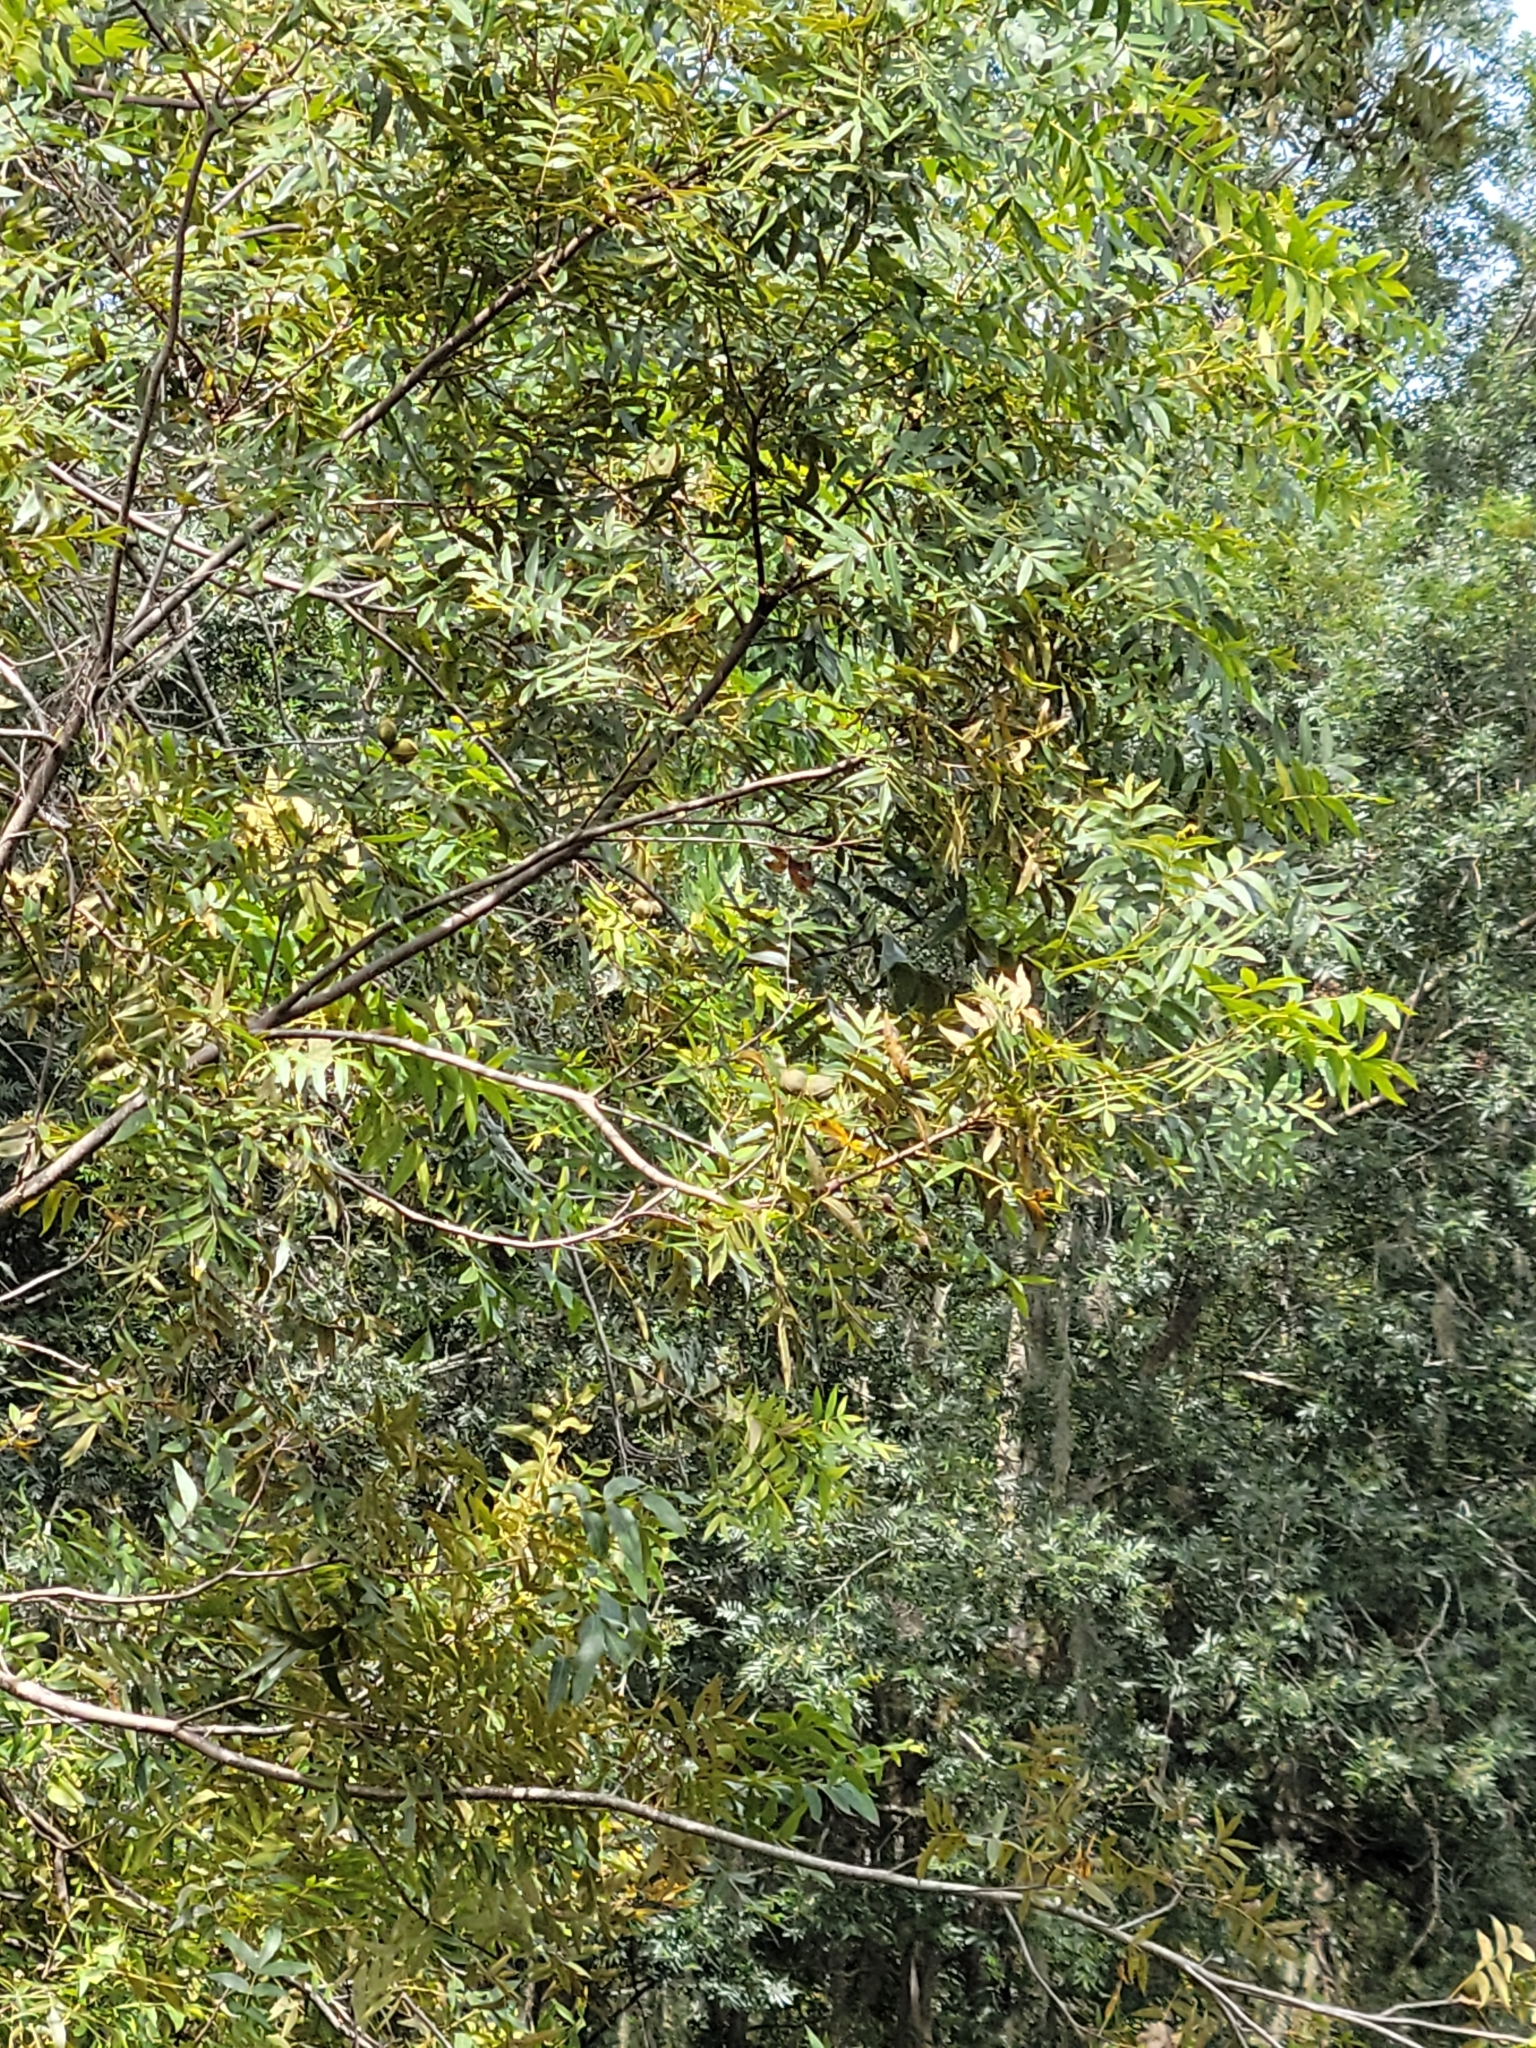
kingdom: Plantae
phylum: Tracheophyta
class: Magnoliopsida
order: Fagales
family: Juglandaceae
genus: Carya
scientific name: Carya aquatica
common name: Water hickory
